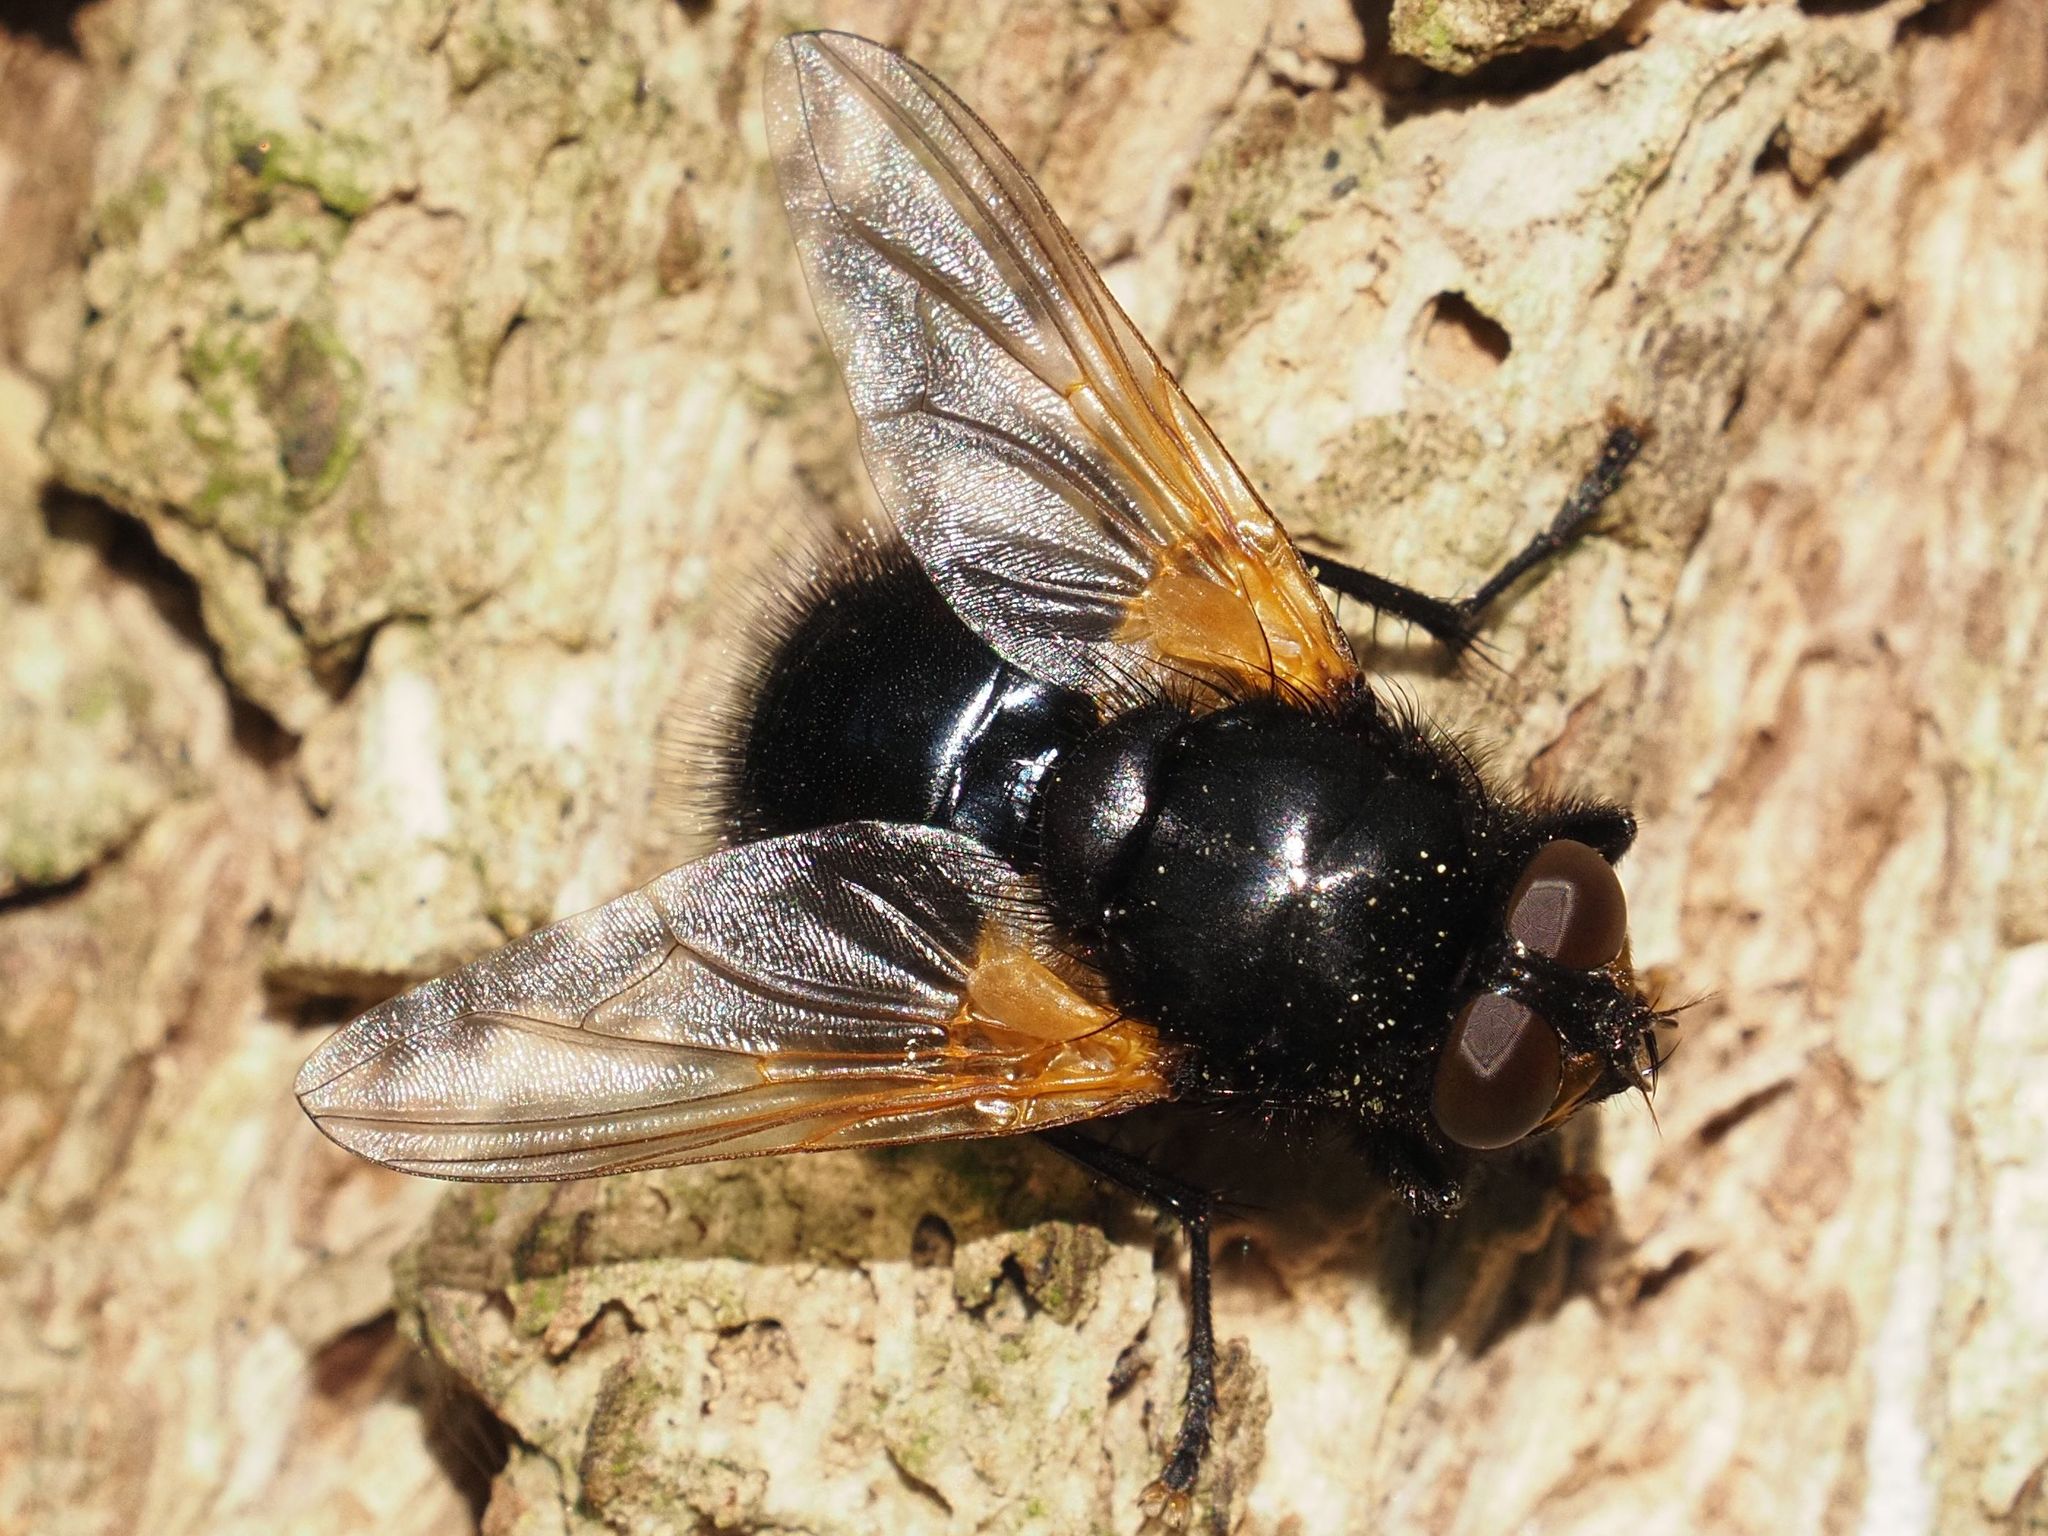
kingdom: Animalia
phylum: Arthropoda
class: Insecta
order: Diptera
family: Muscidae
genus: Mesembrina
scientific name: Mesembrina meridiana
